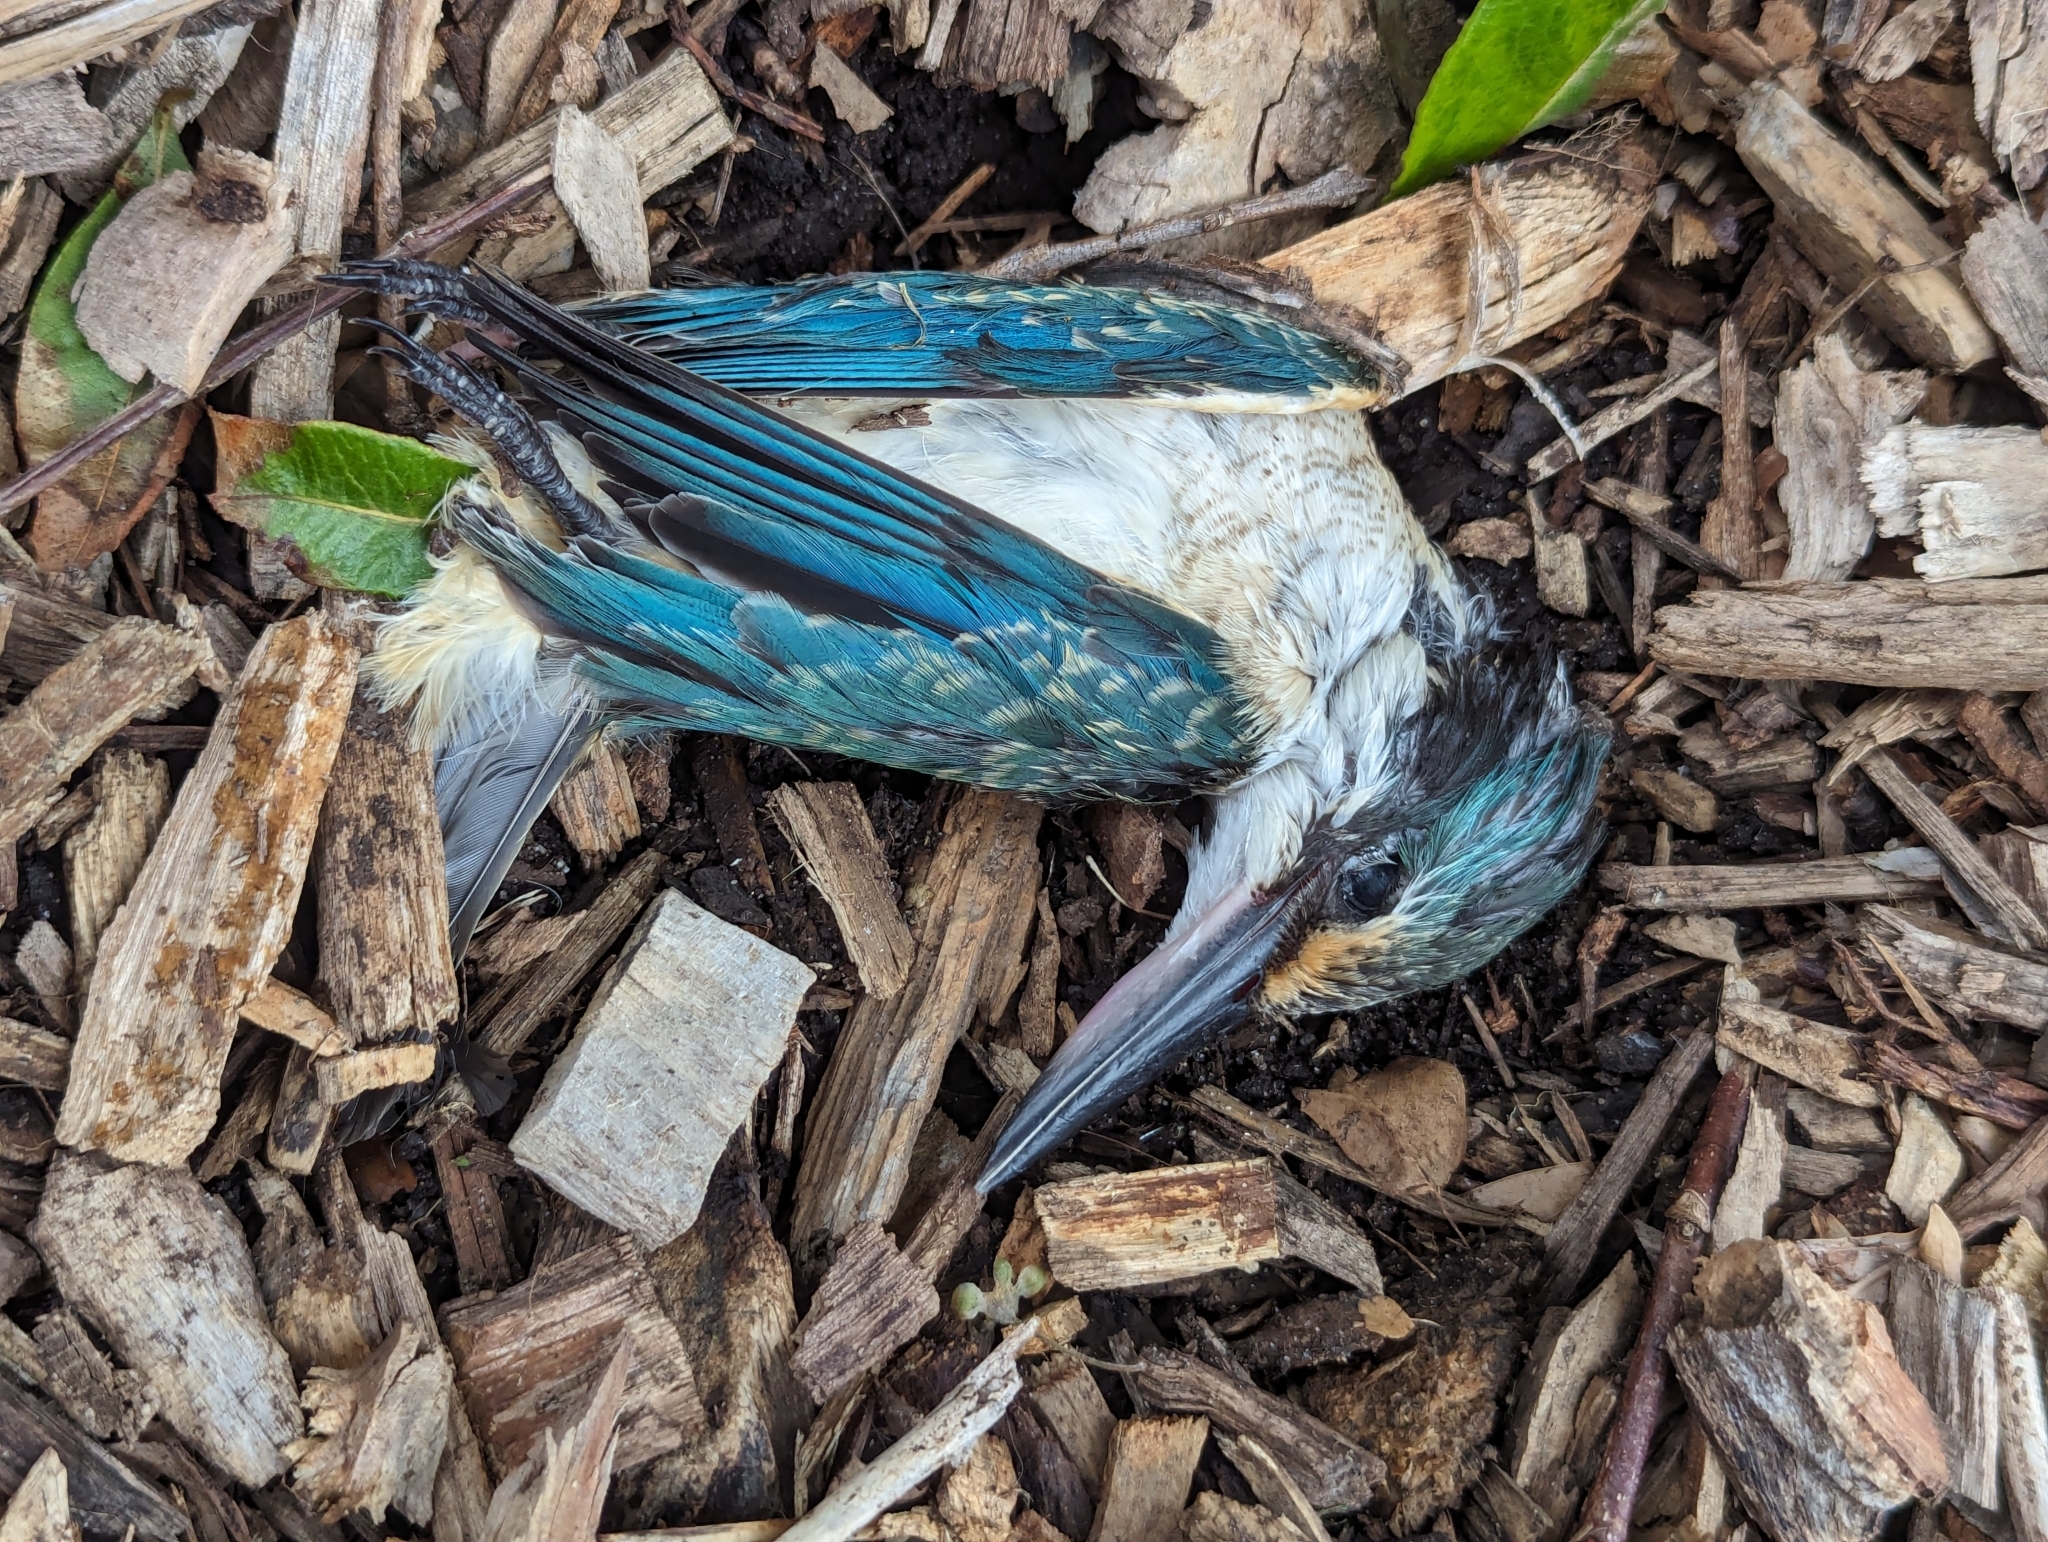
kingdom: Animalia
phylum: Chordata
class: Aves
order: Coraciiformes
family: Alcedinidae
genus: Todiramphus
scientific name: Todiramphus sanctus
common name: Sacred kingfisher
